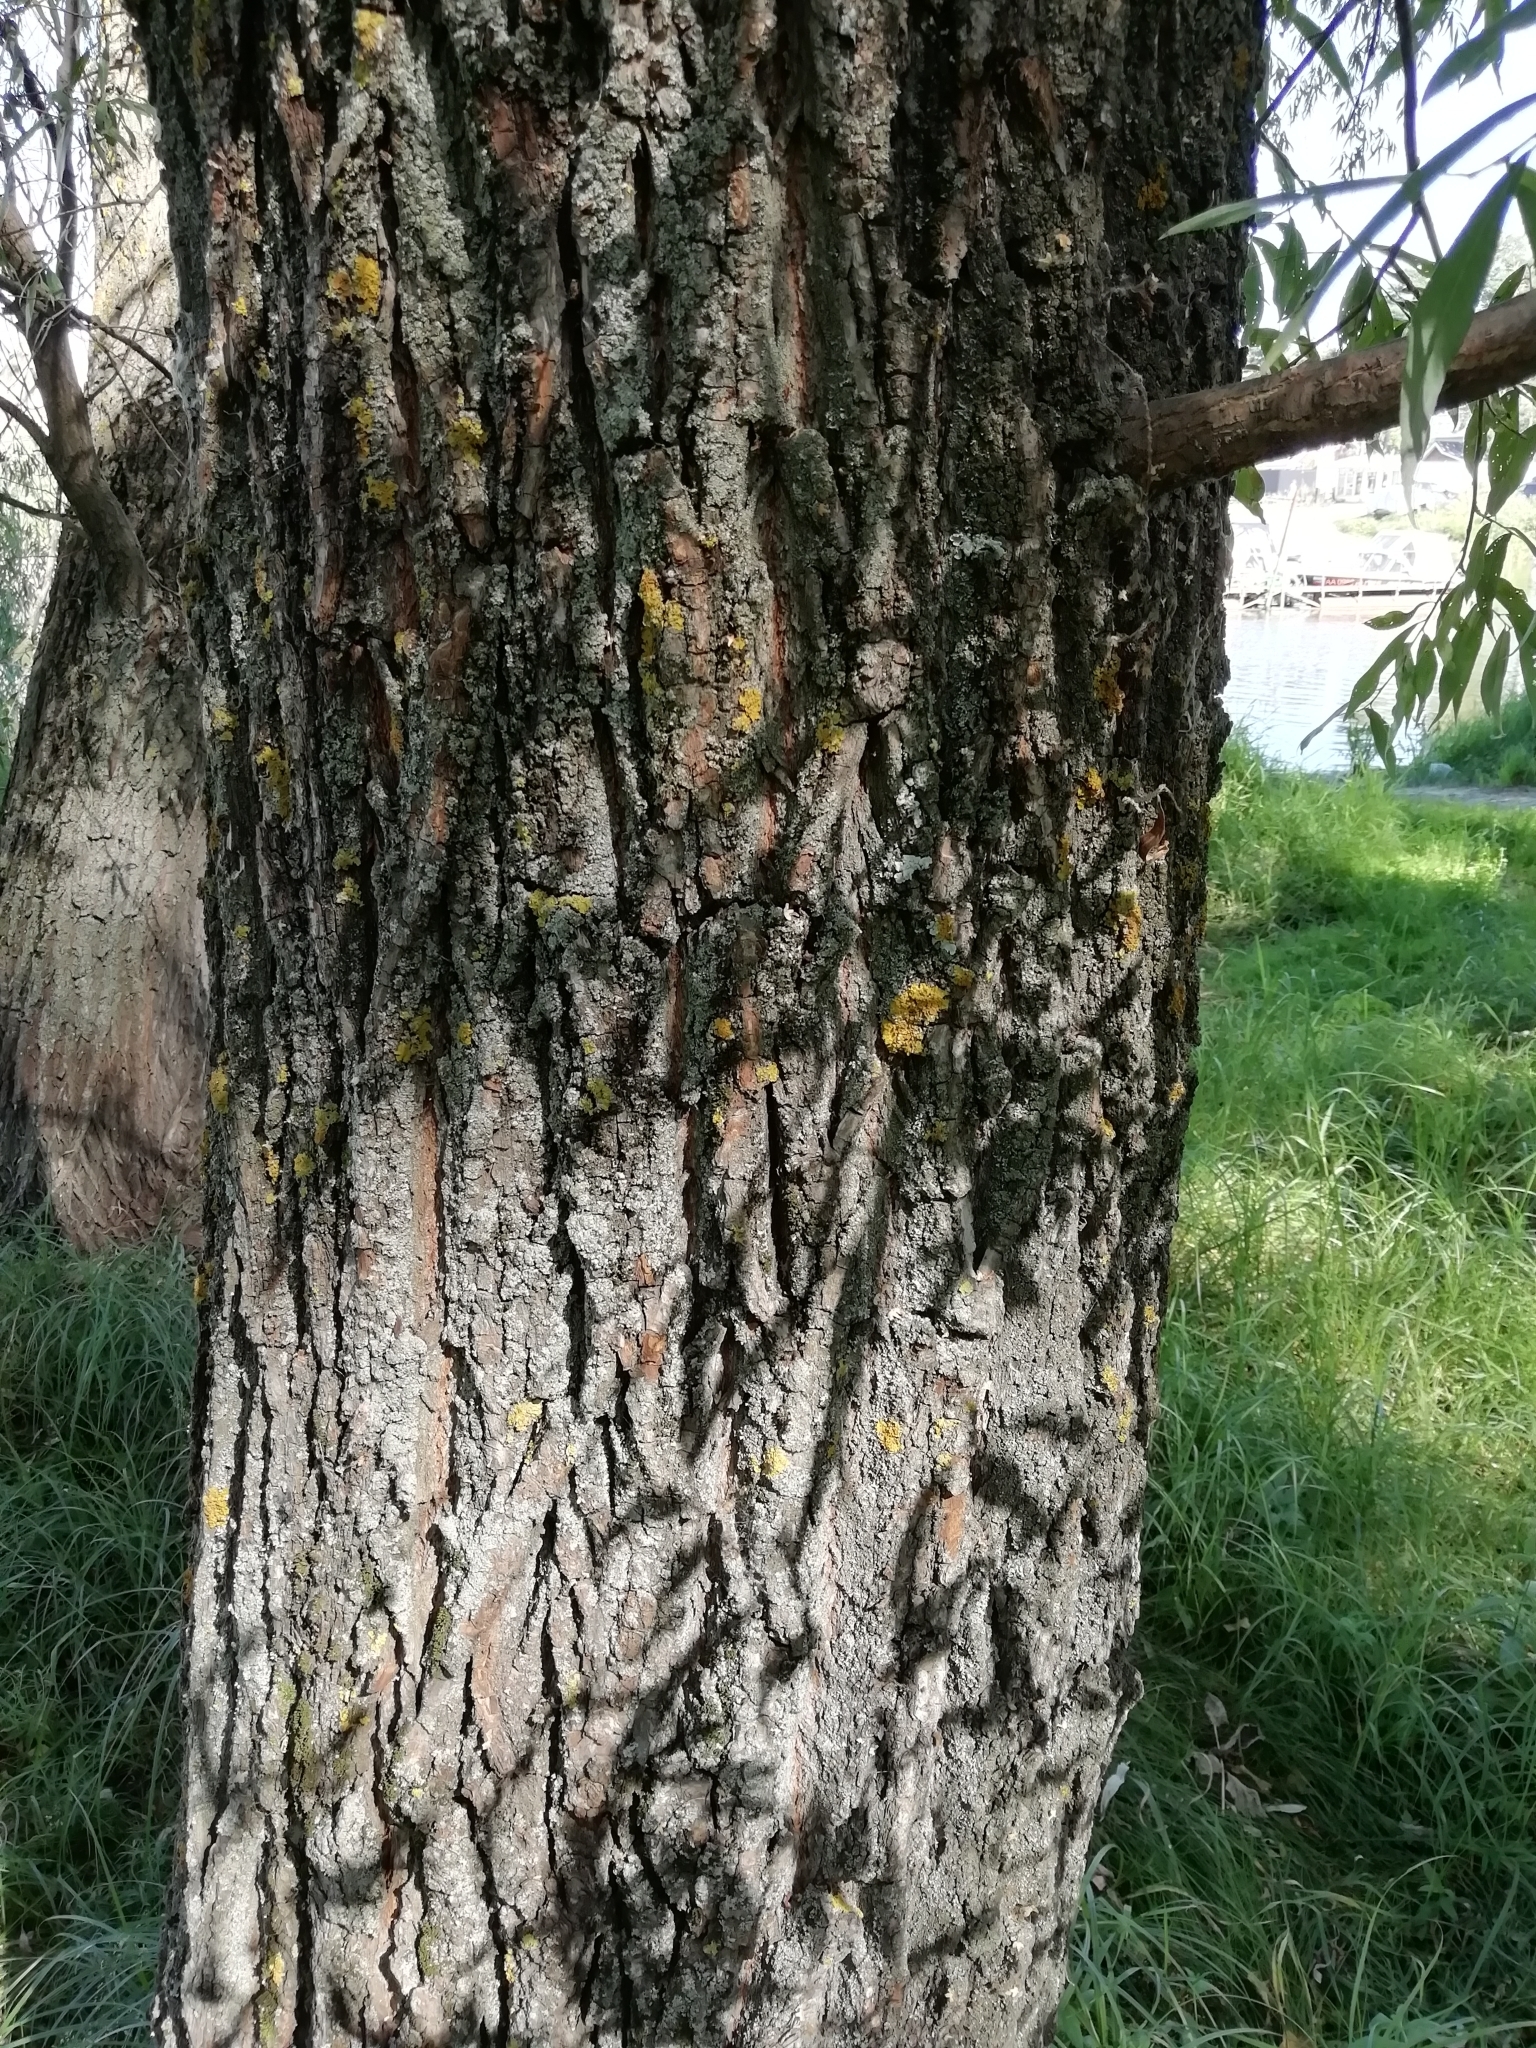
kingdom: Plantae
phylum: Tracheophyta
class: Magnoliopsida
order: Malpighiales
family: Salicaceae
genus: Salix
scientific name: Salix alba
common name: White willow
